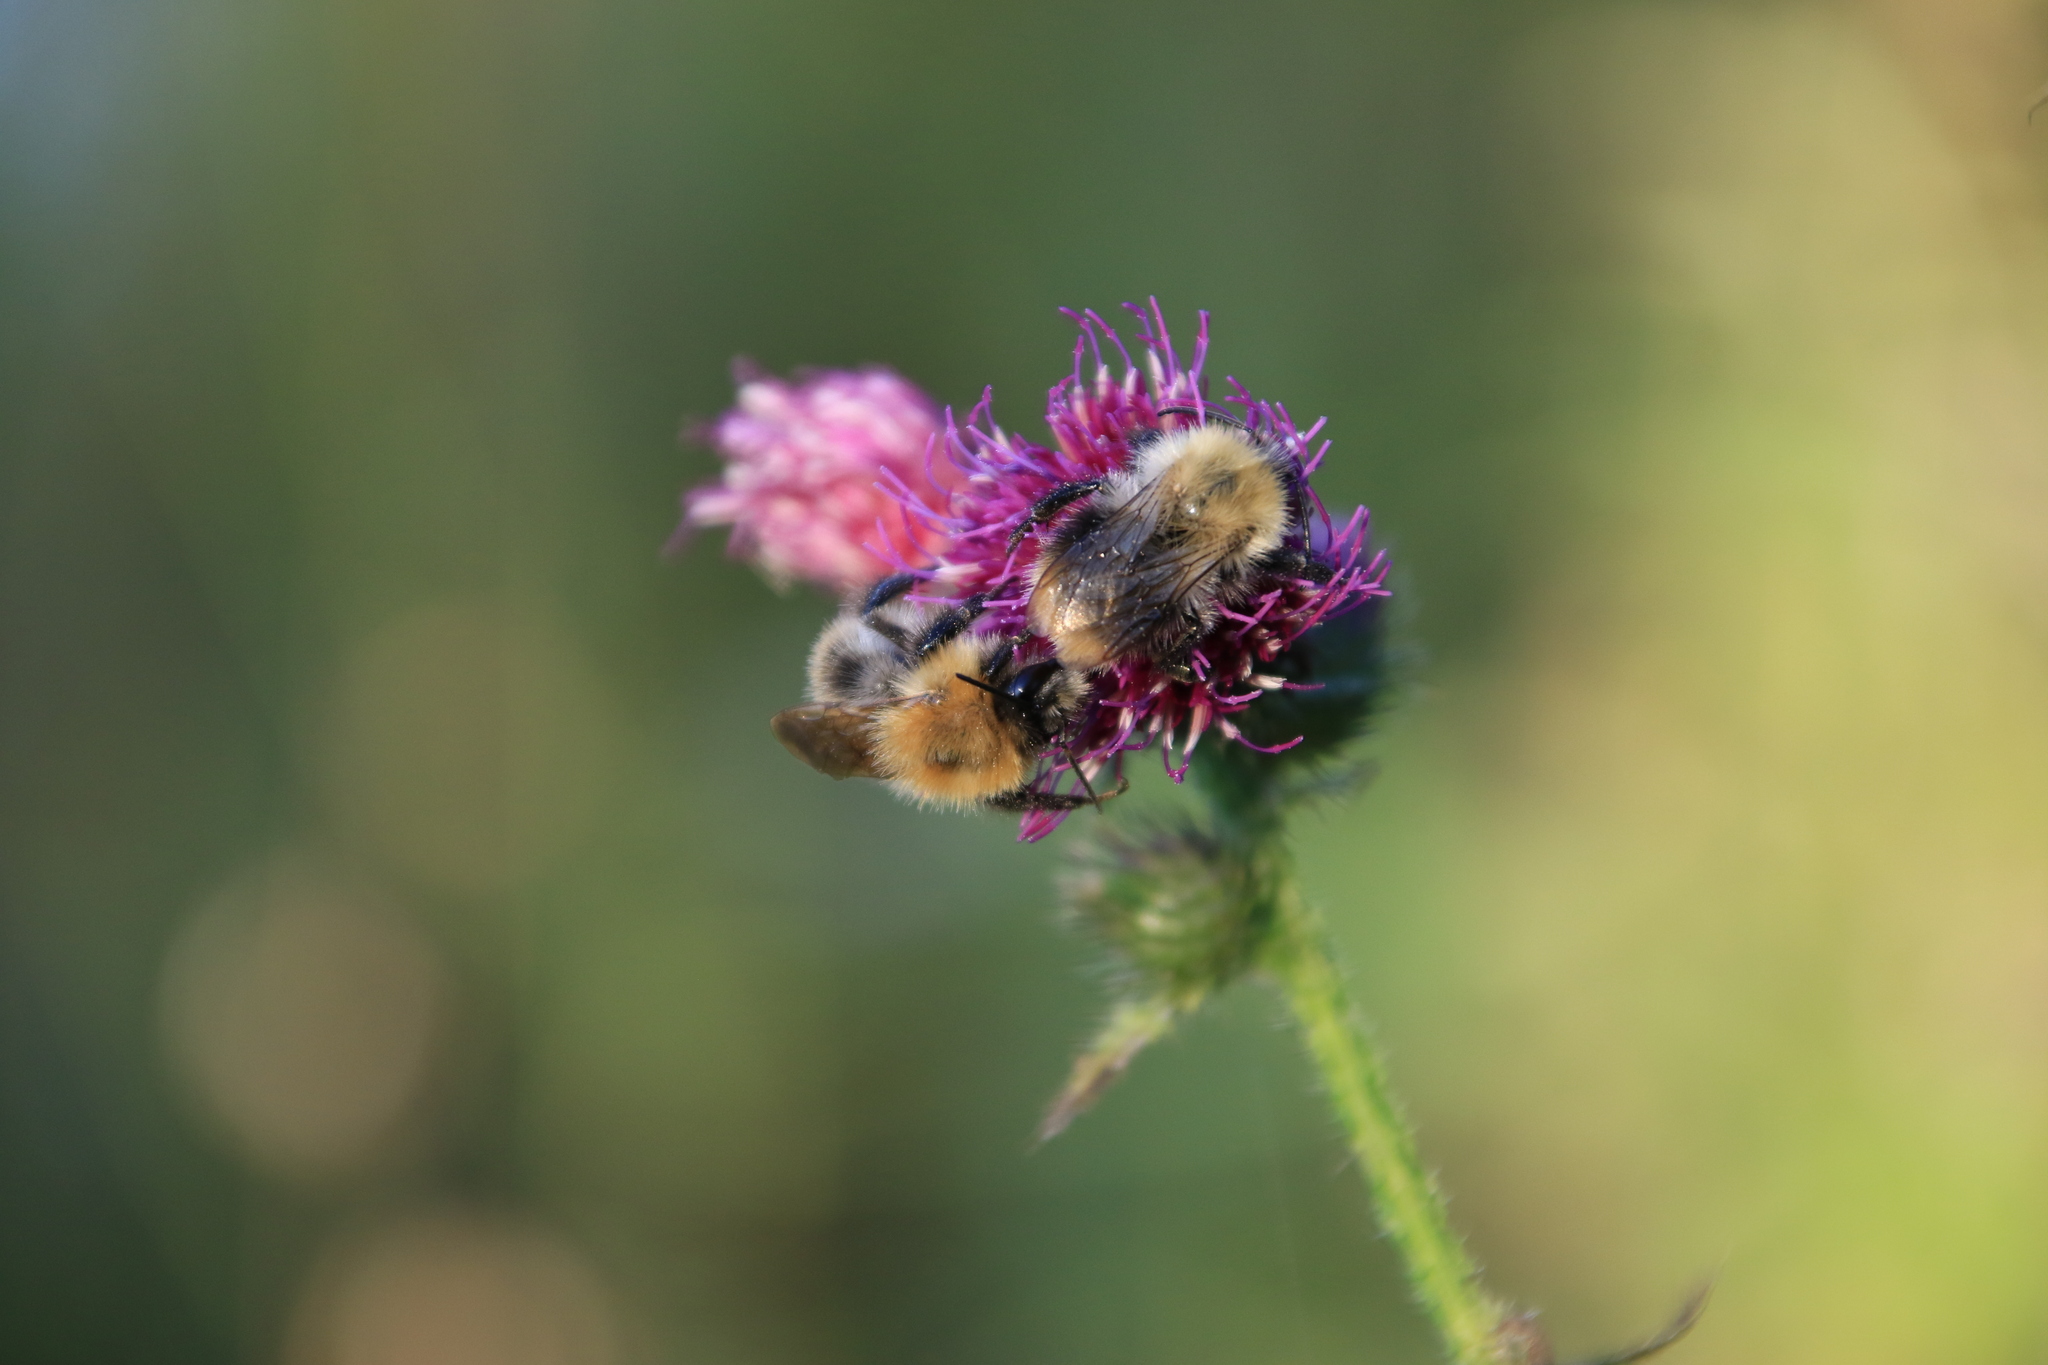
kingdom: Animalia
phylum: Arthropoda
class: Insecta
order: Hymenoptera
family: Apidae
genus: Bombus
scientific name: Bombus pascuorum
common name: Common carder bee
